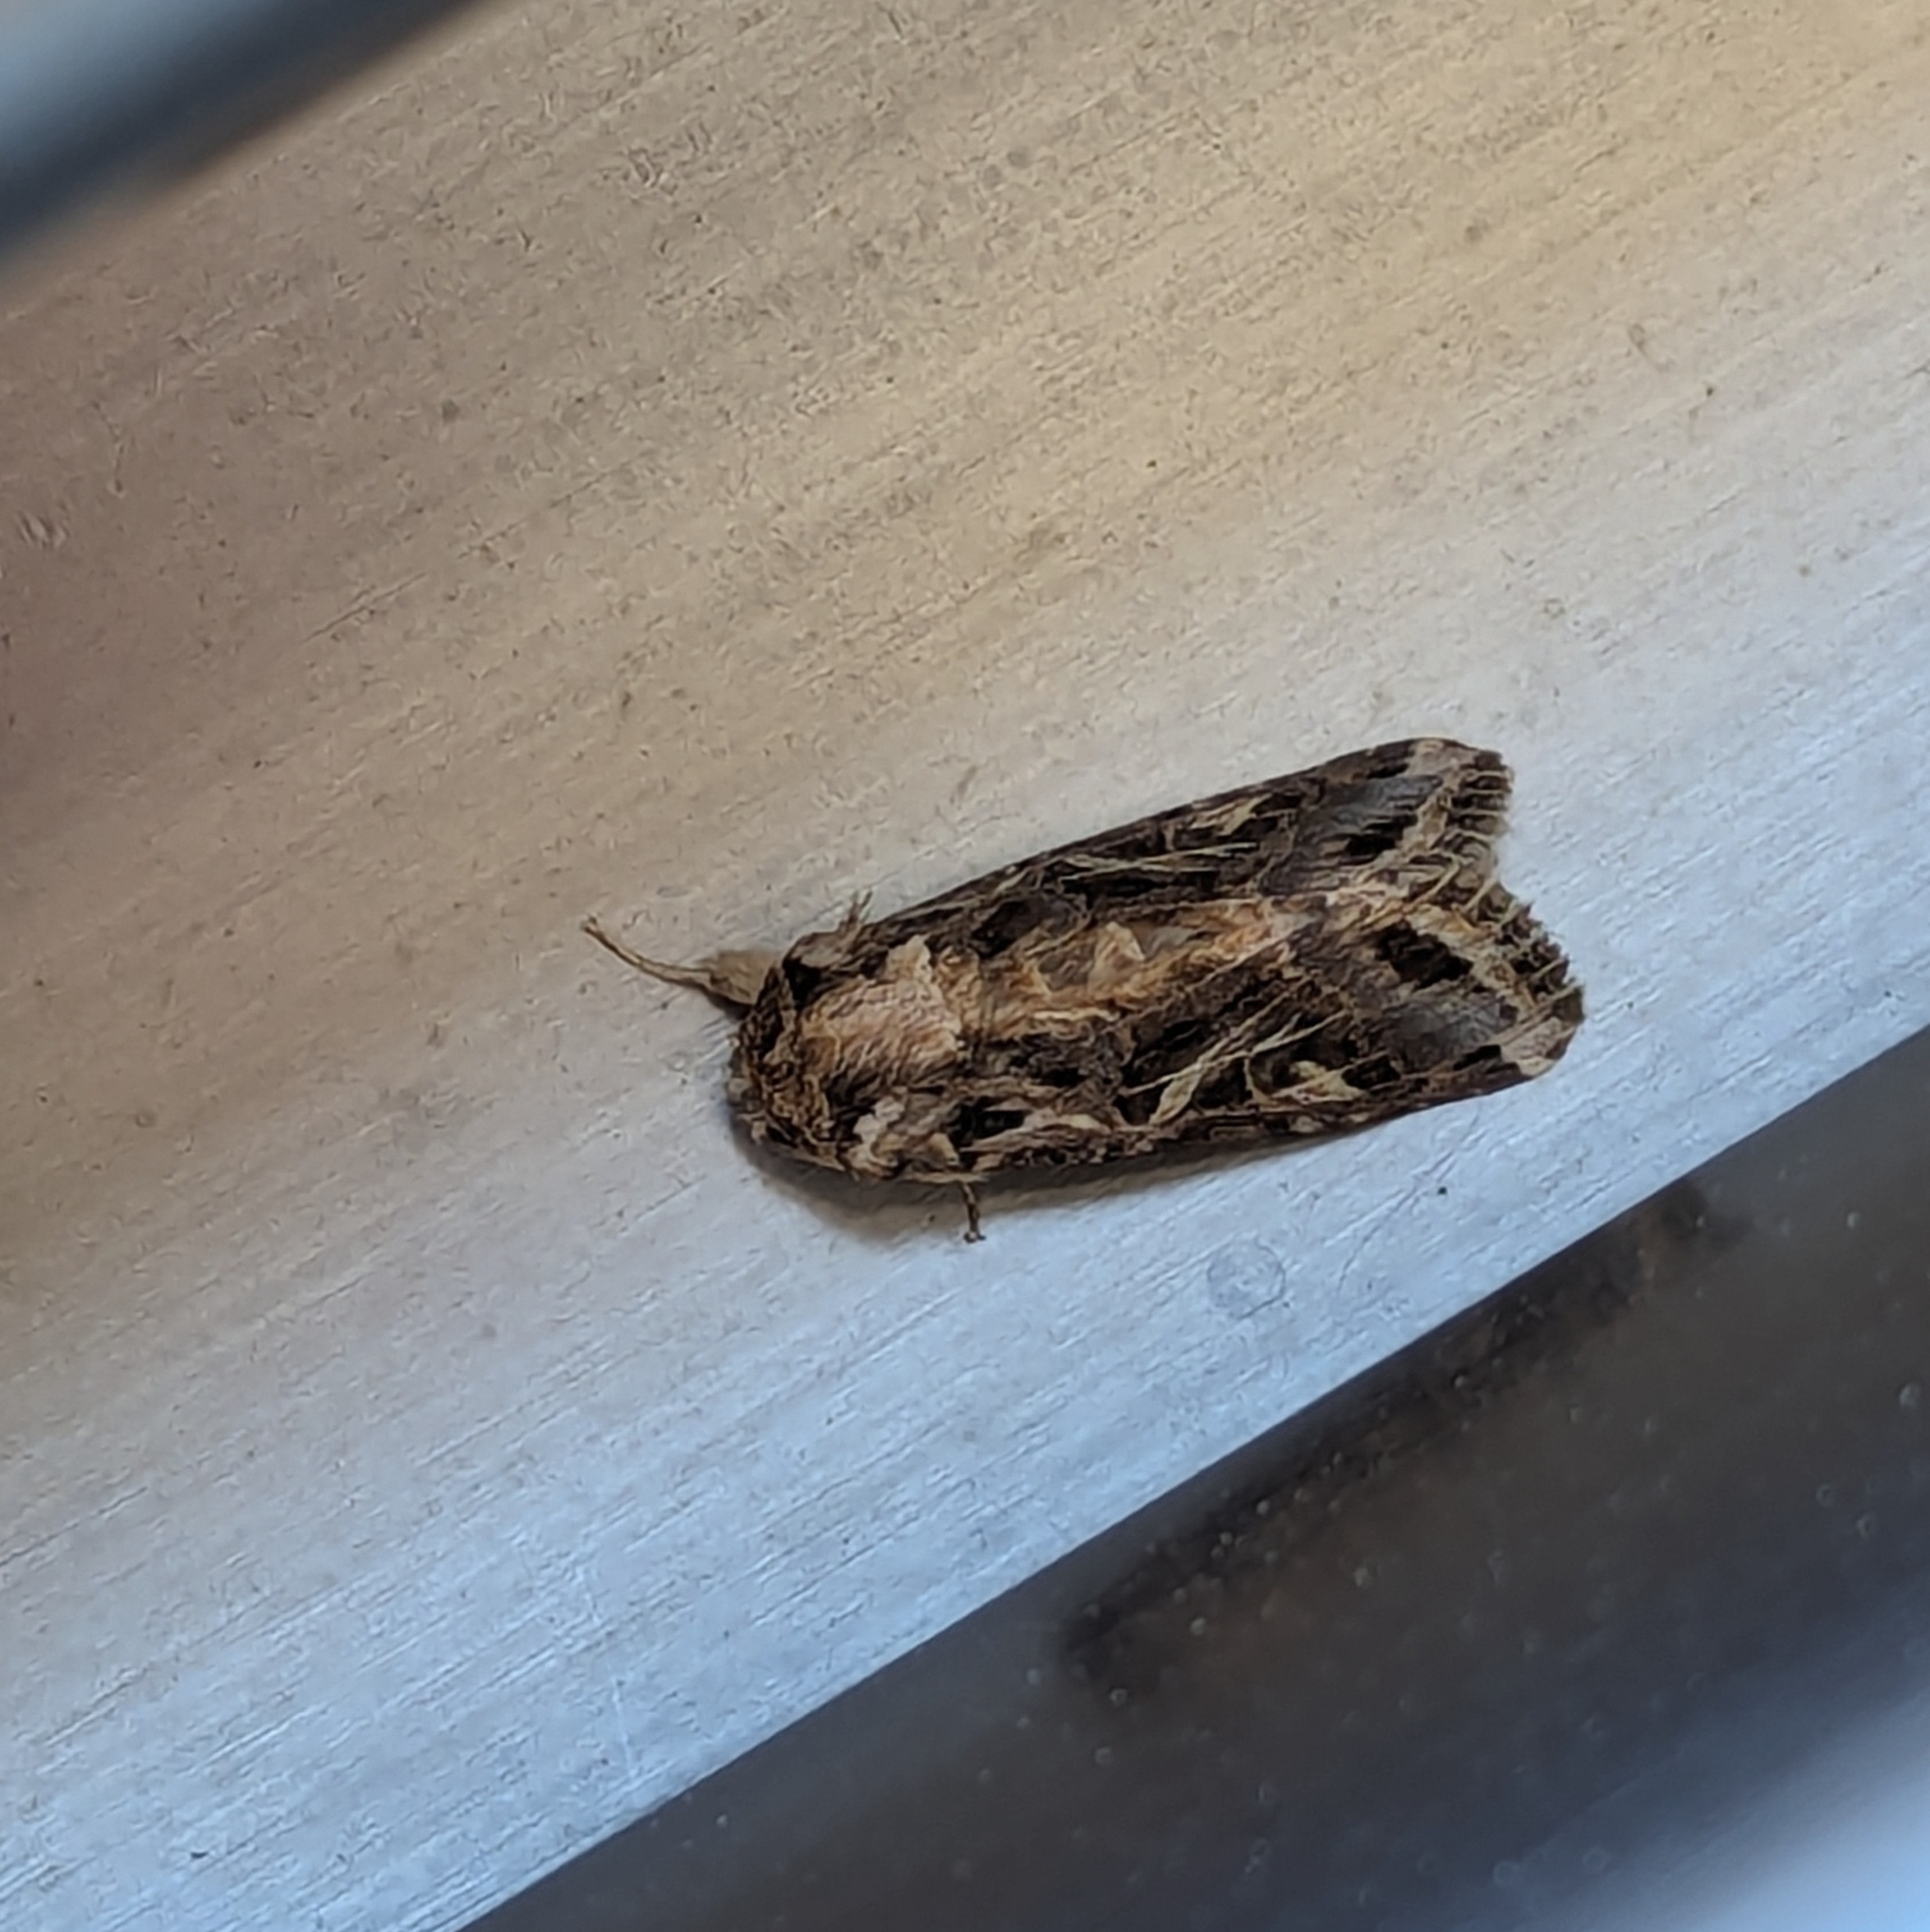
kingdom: Animalia
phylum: Arthropoda
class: Insecta
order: Lepidoptera
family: Noctuidae
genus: Spodoptera
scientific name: Spodoptera littoralis
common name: Egyptian cotton leafworm
